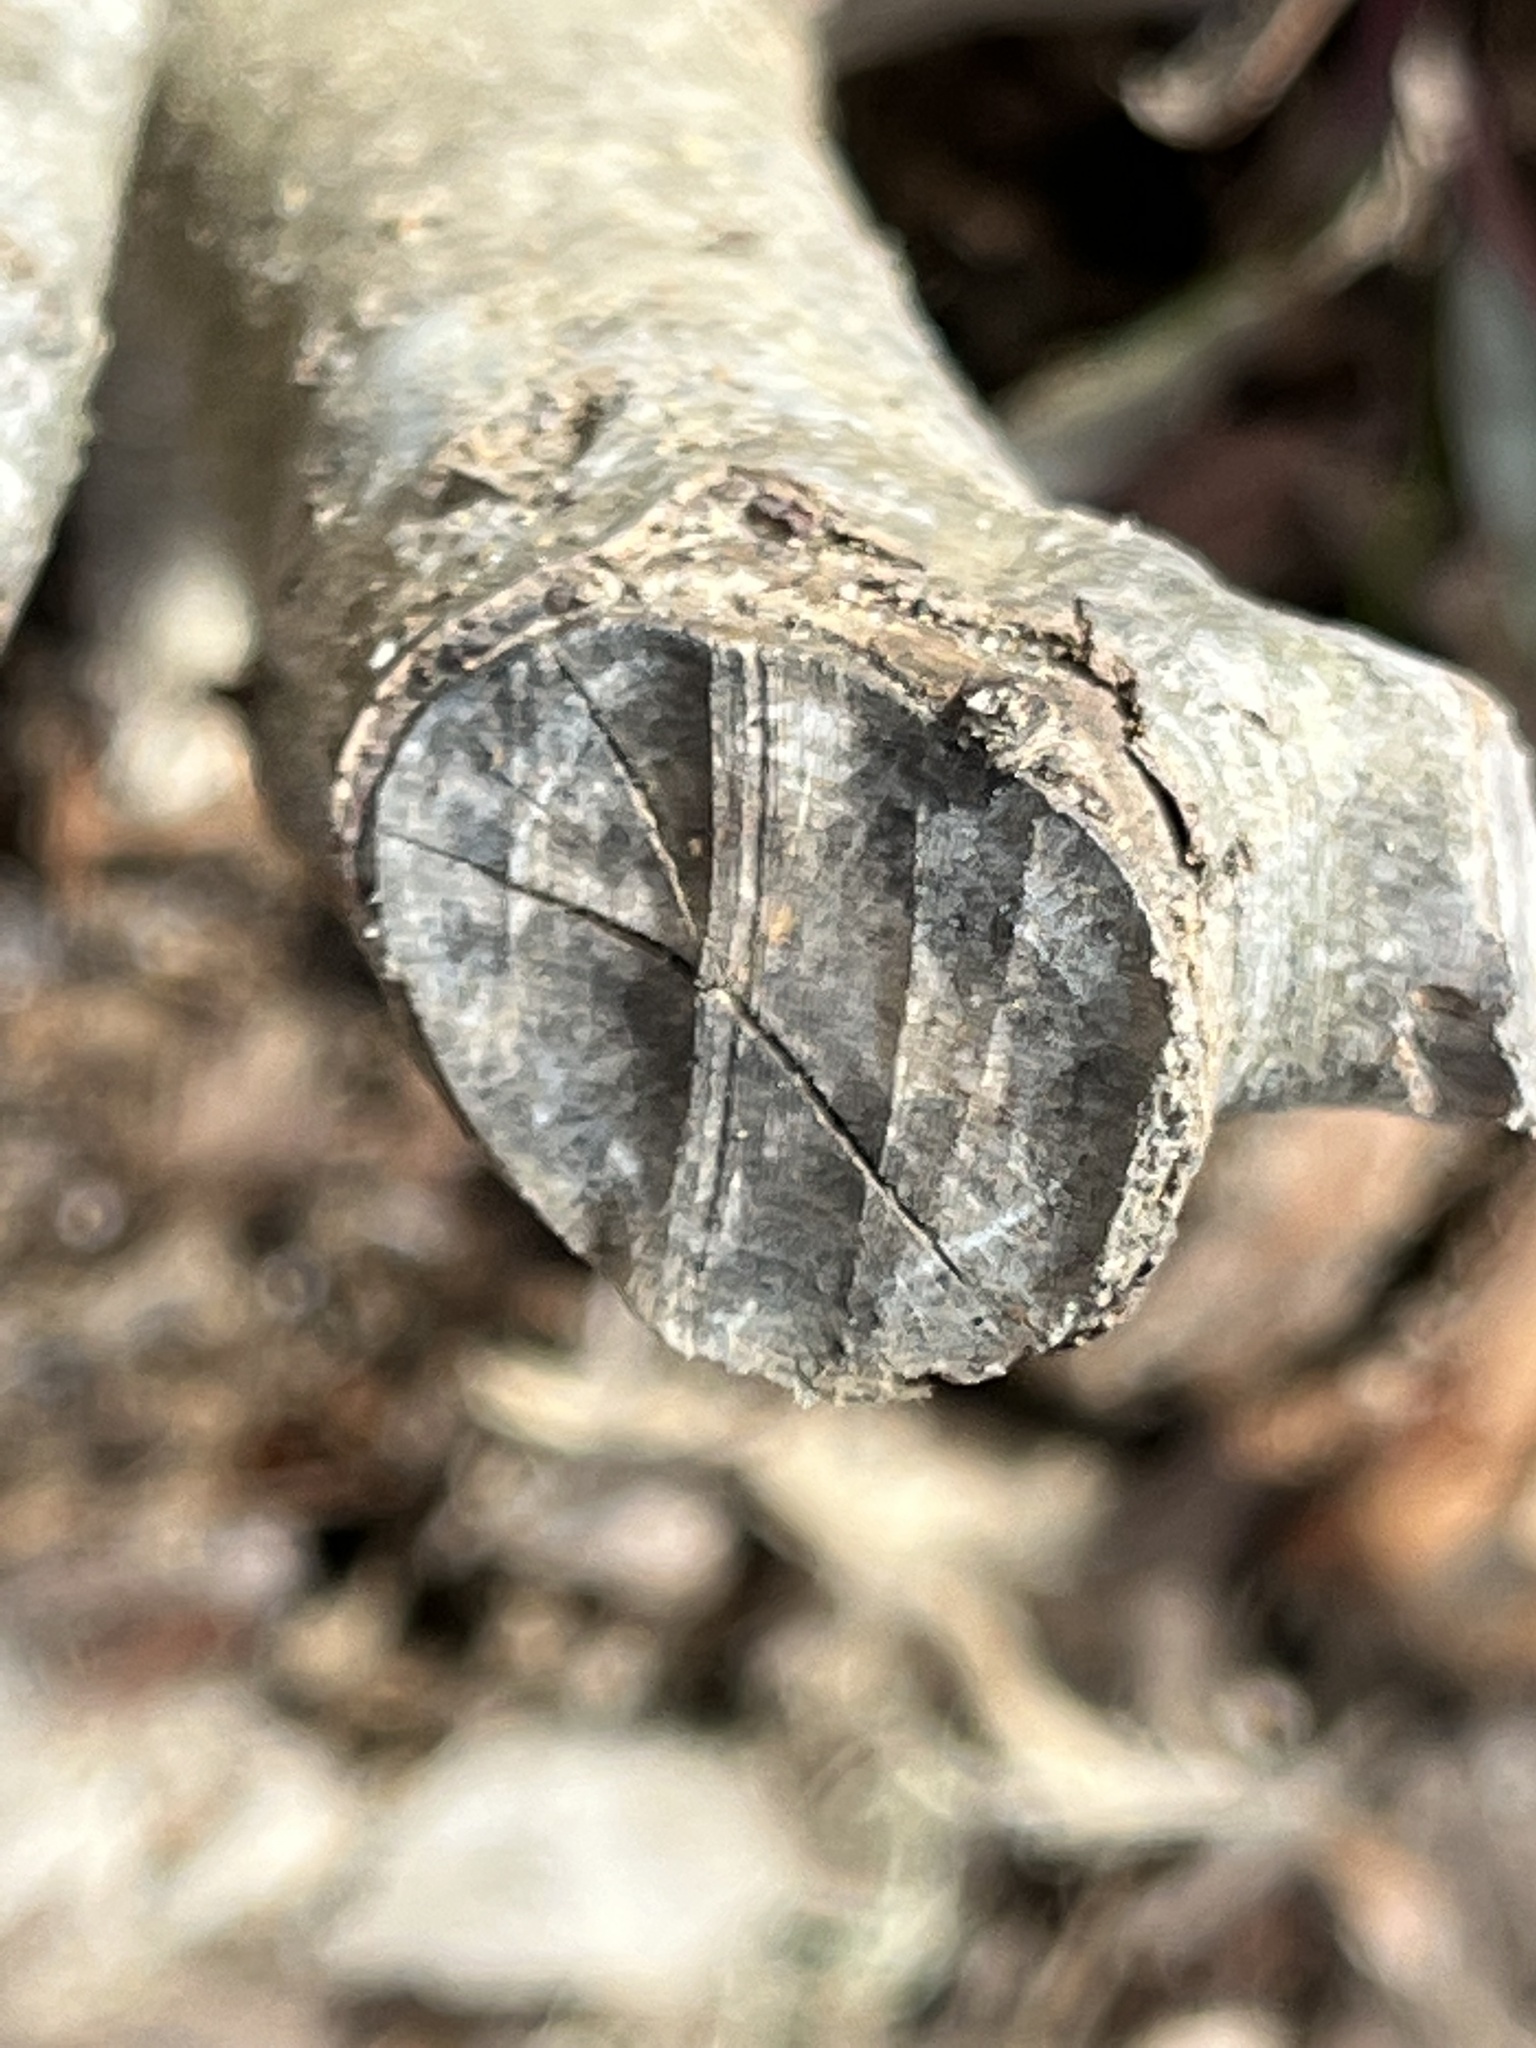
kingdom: Animalia
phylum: Chordata
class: Mammalia
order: Rodentia
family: Castoridae
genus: Castor
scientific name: Castor canadensis
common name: American beaver
